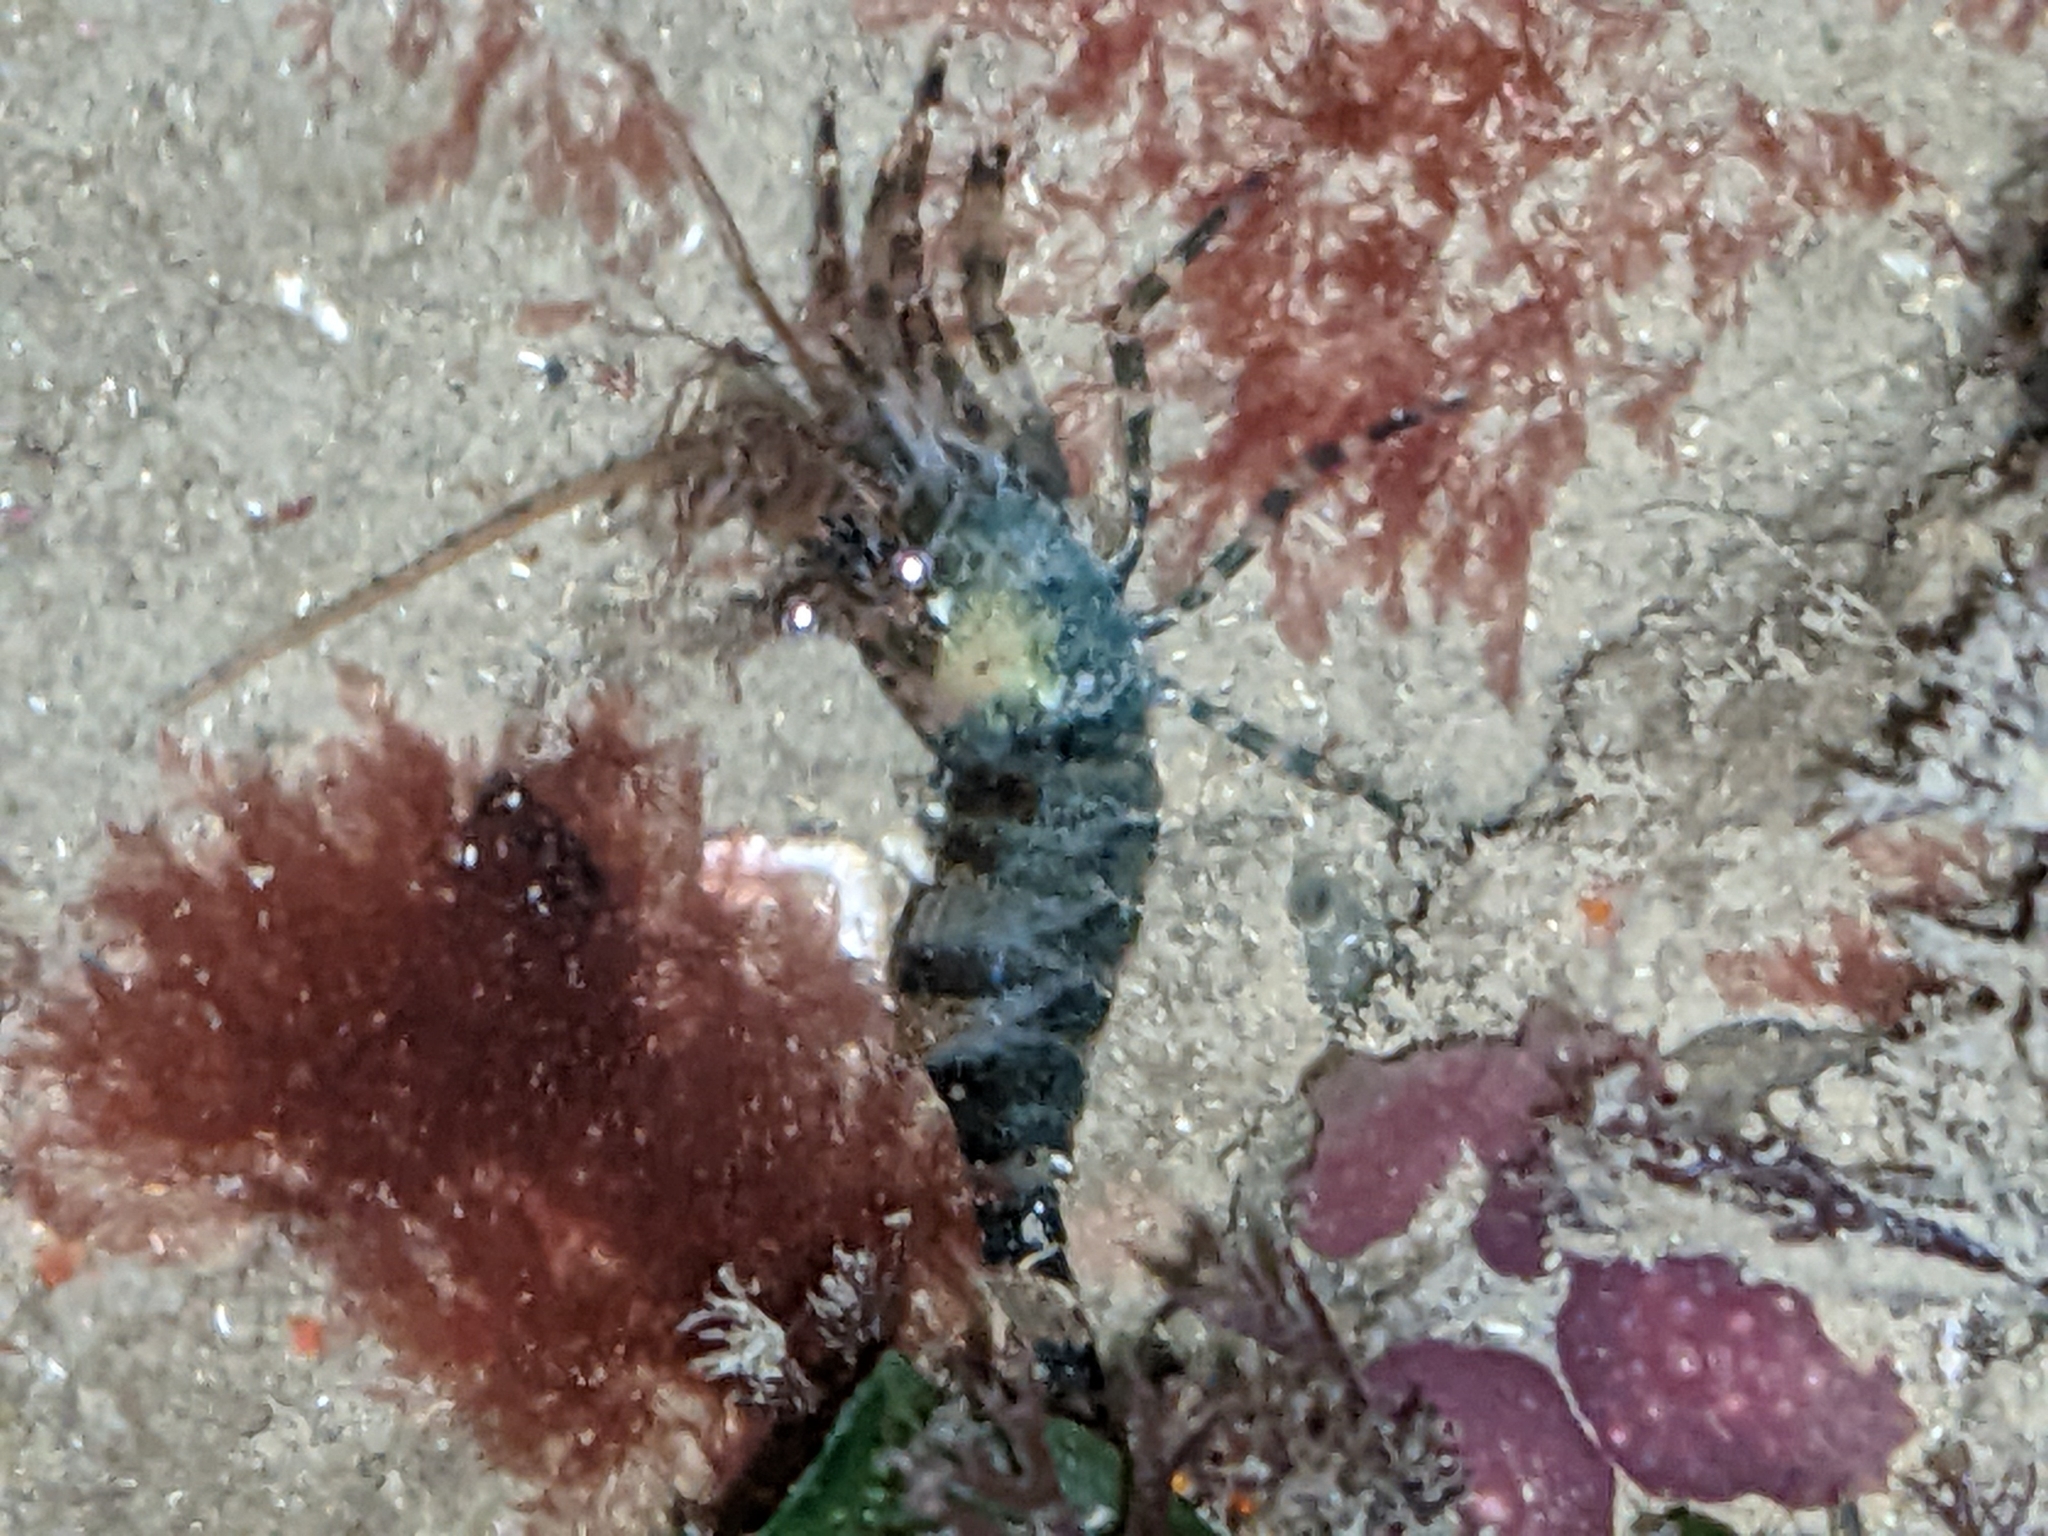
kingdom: Animalia
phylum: Arthropoda
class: Malacostraca
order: Decapoda
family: Thoridae
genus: Heptacarpus
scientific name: Heptacarpus brevirostris
